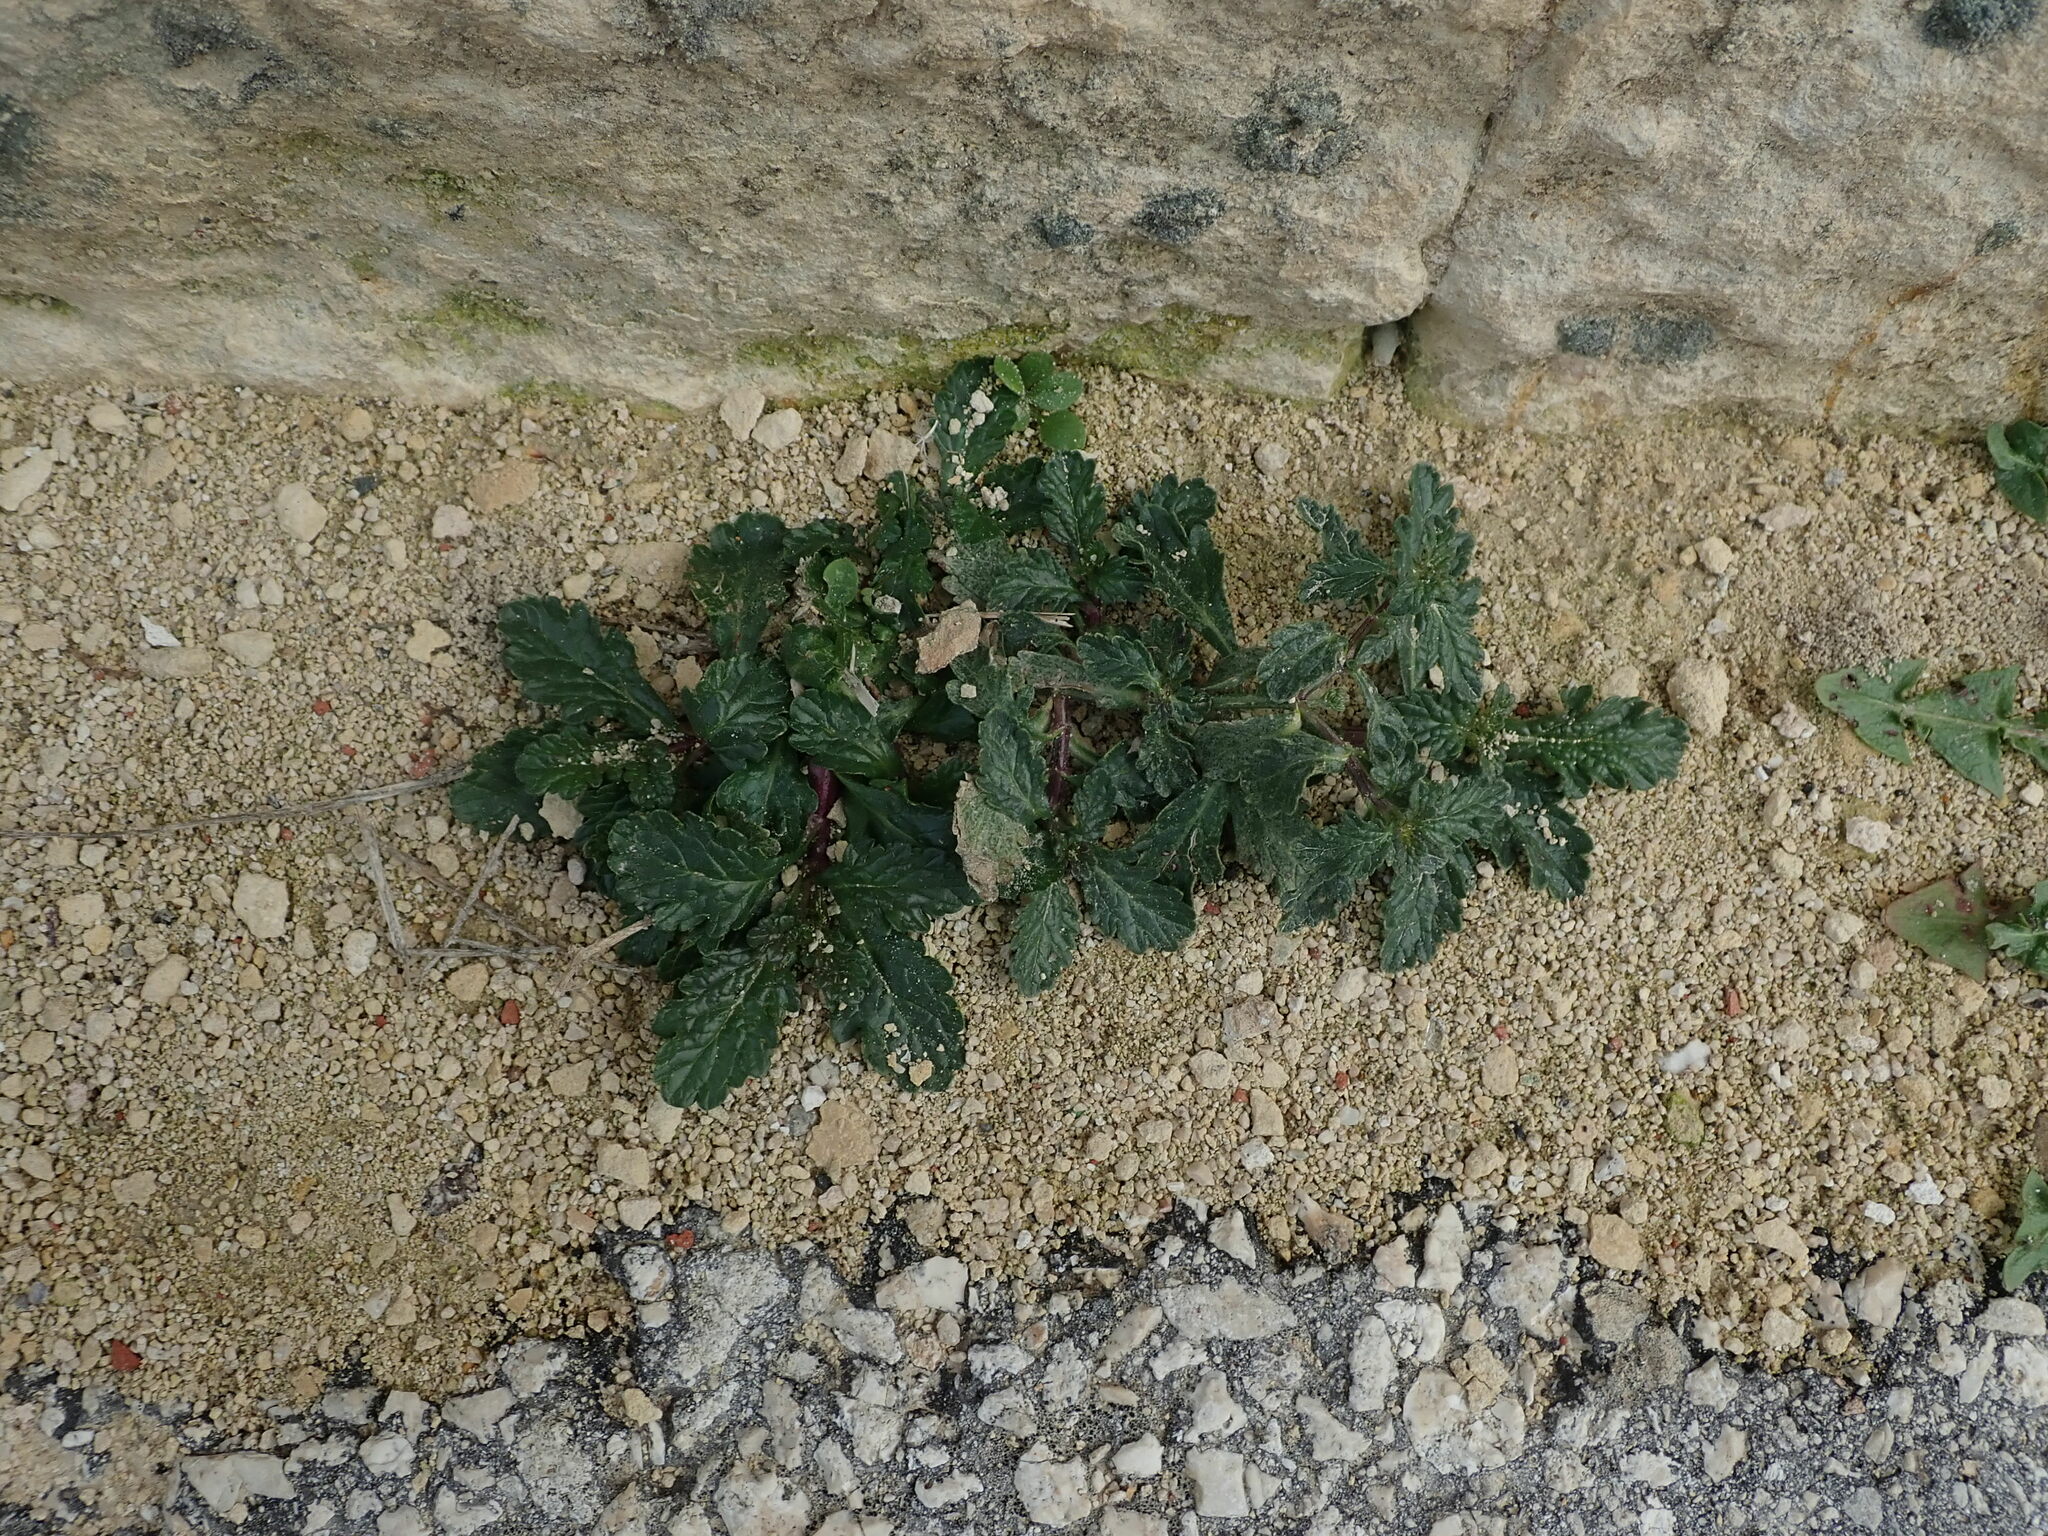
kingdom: Plantae
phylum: Tracheophyta
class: Magnoliopsida
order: Lamiales
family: Verbenaceae
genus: Verbena
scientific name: Verbena officinalis
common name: Vervain
